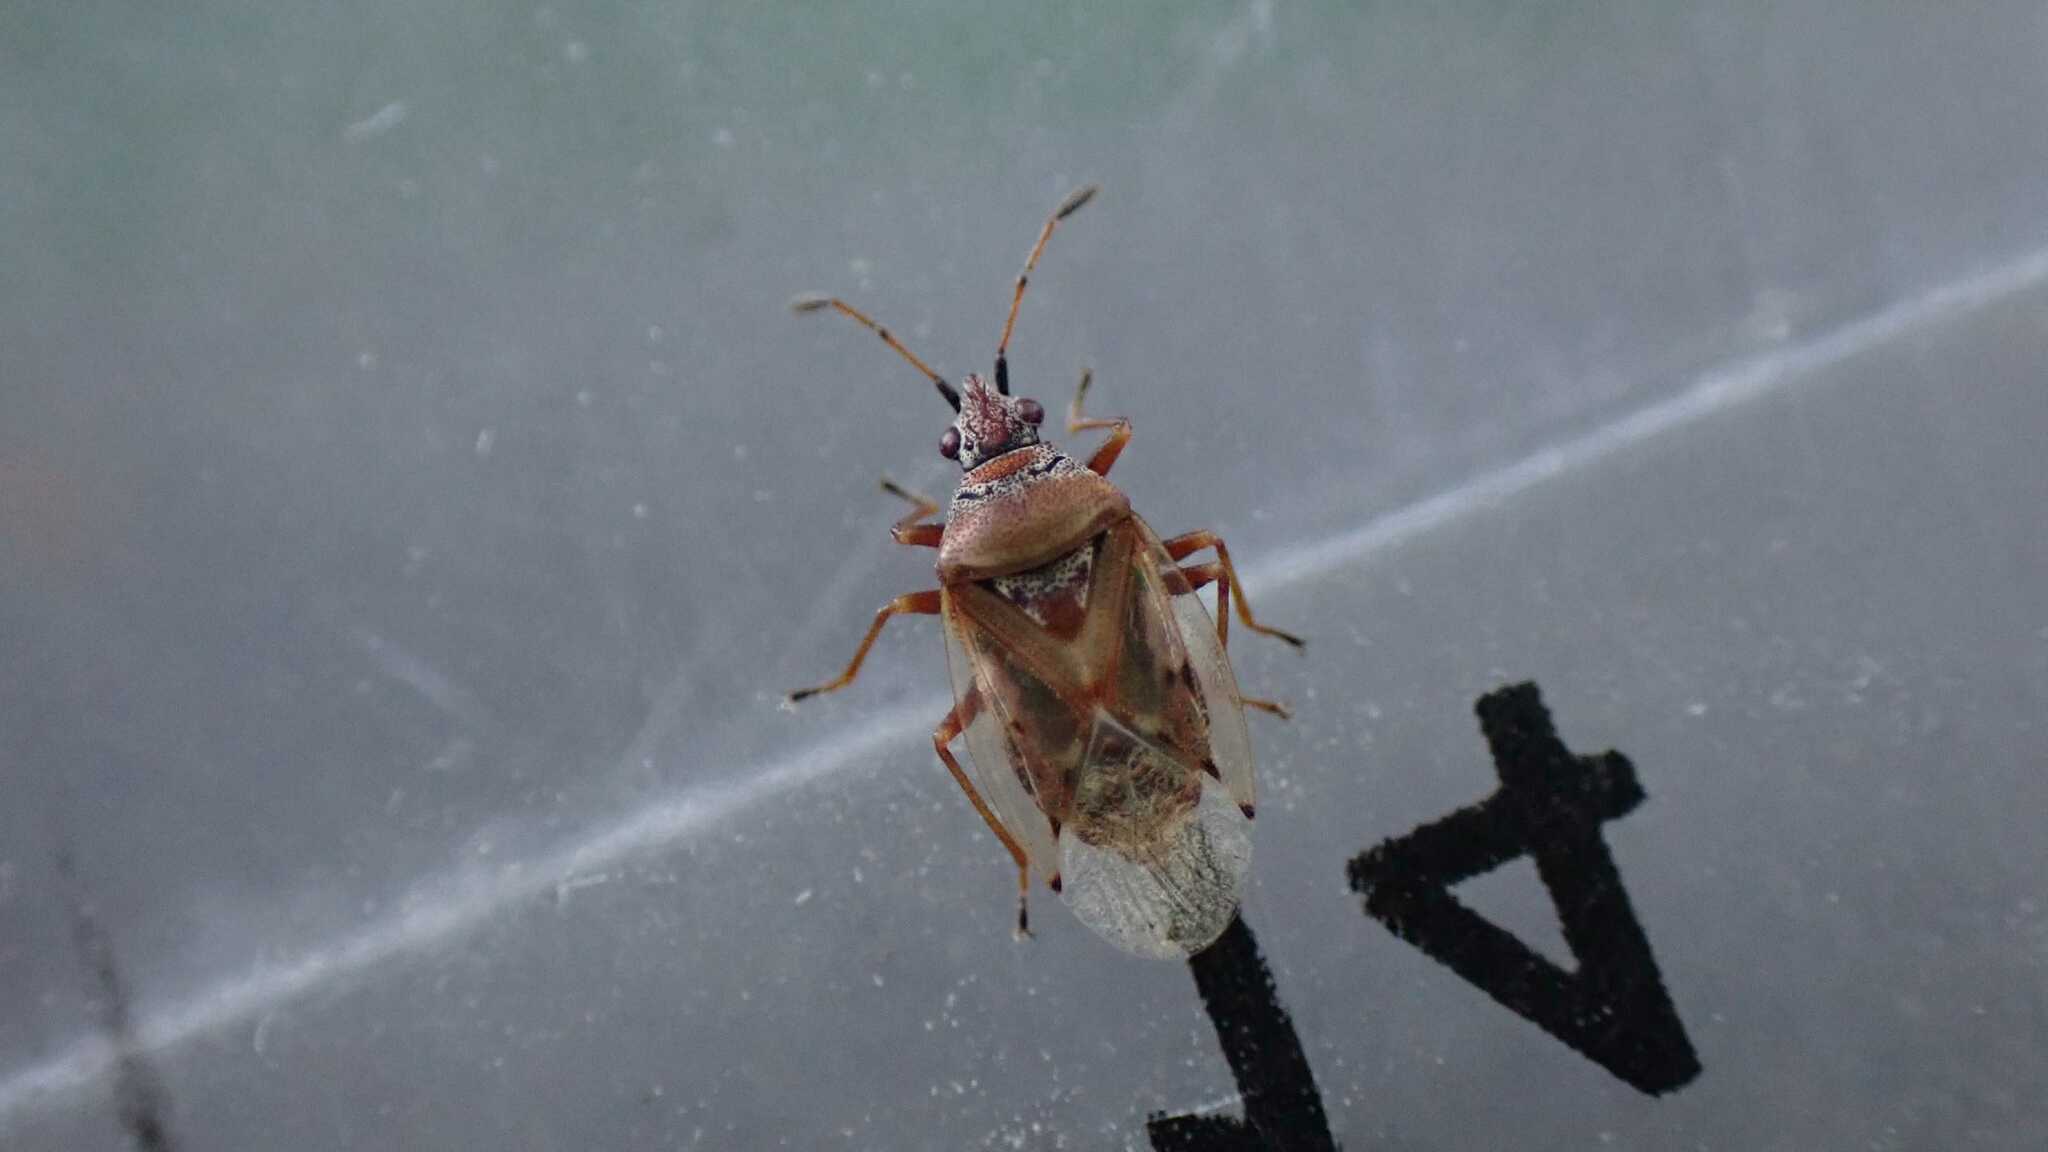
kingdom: Animalia
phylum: Arthropoda
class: Insecta
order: Hemiptera
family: Lygaeidae
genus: Kleidocerys
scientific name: Kleidocerys resedae
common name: Birch catkin bug
